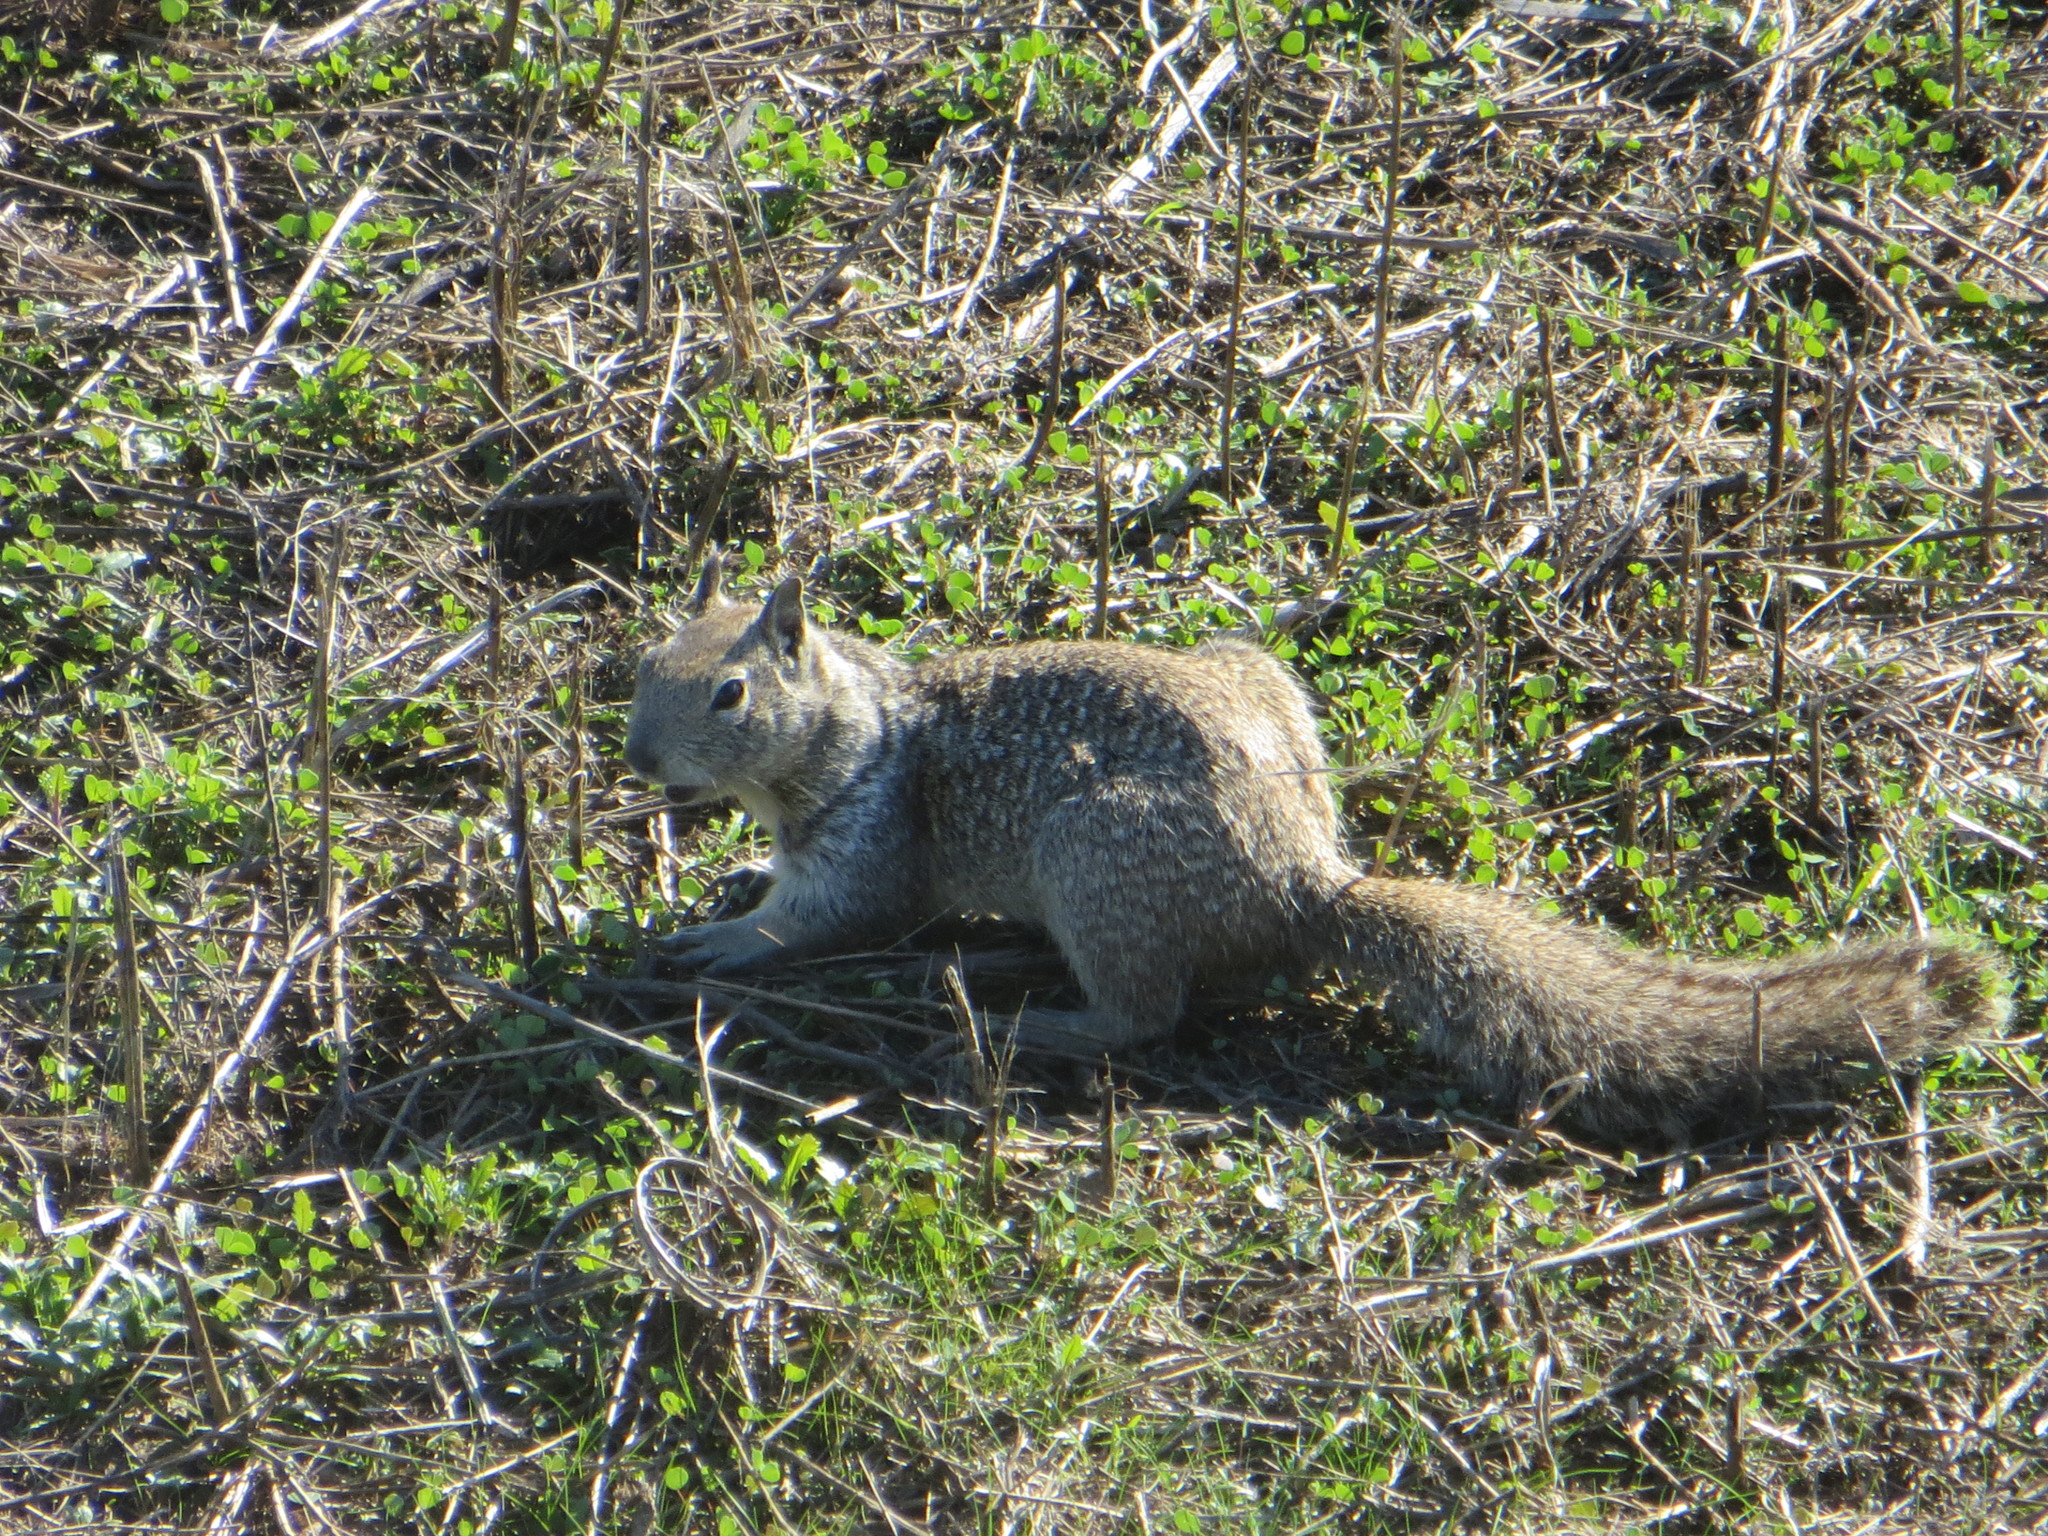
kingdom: Animalia
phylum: Chordata
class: Mammalia
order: Rodentia
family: Sciuridae
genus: Otospermophilus
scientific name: Otospermophilus beecheyi
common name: California ground squirrel
